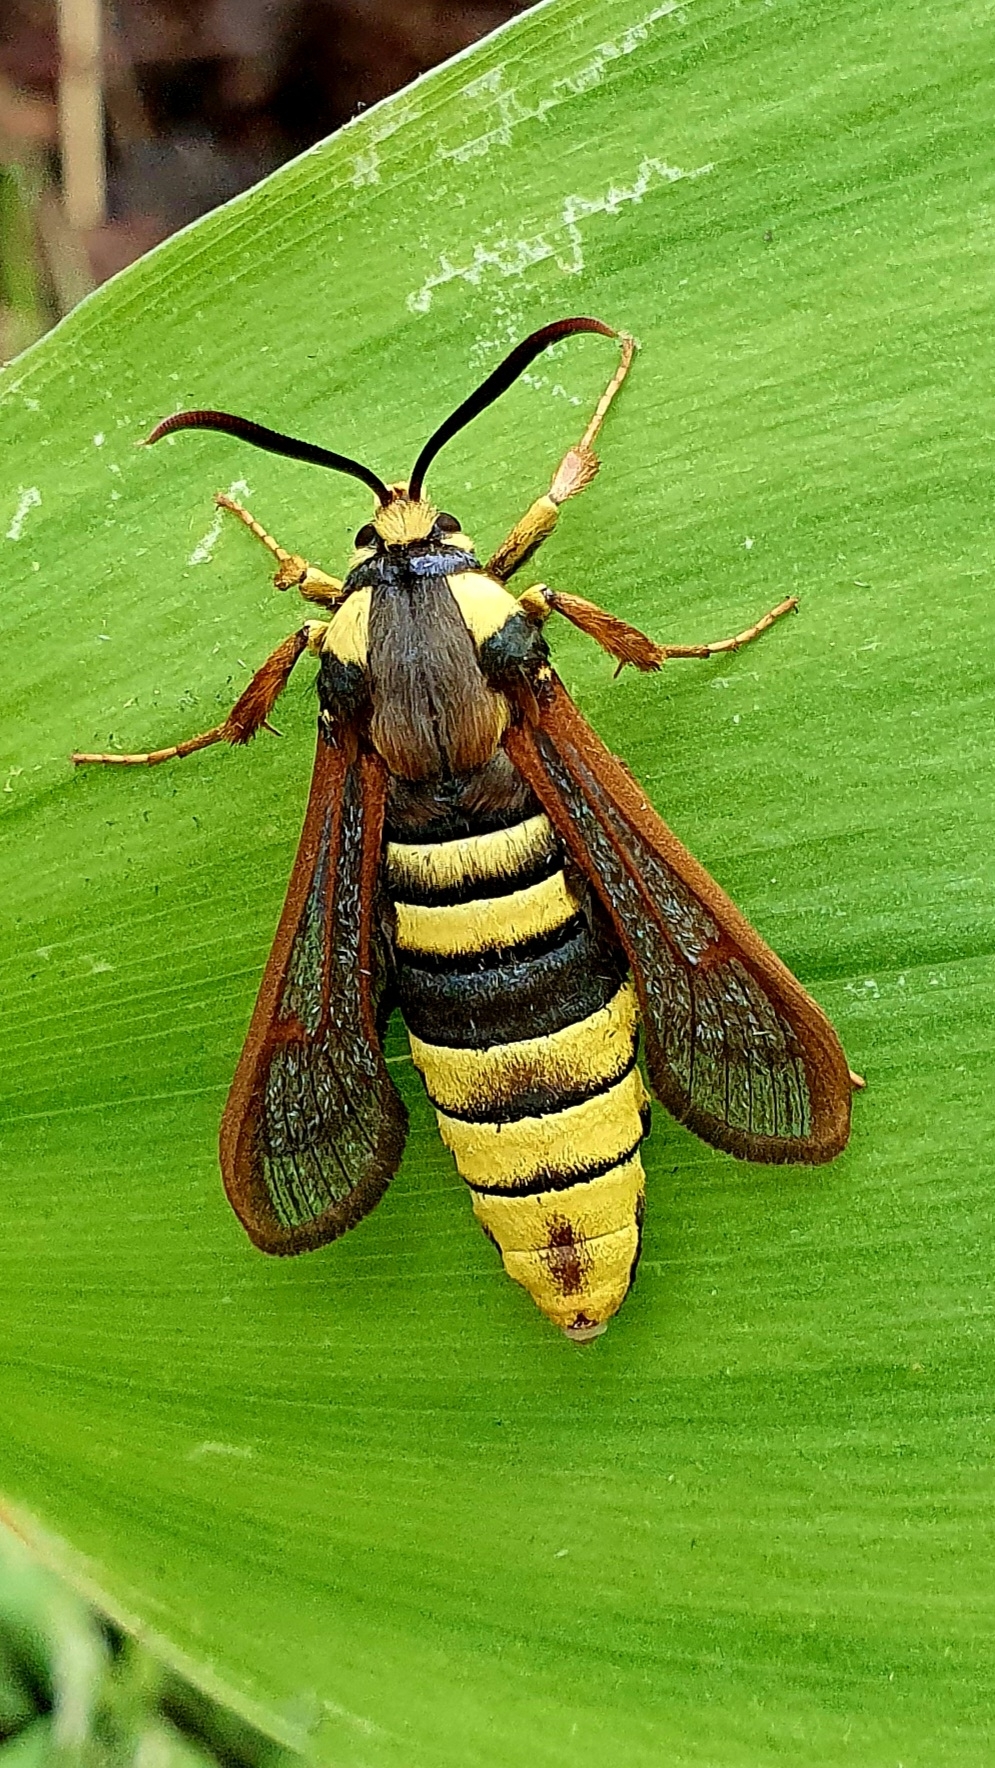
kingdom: Animalia
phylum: Arthropoda
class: Insecta
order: Lepidoptera
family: Sesiidae
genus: Sesia
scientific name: Sesia apiformis
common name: Hornet moth
